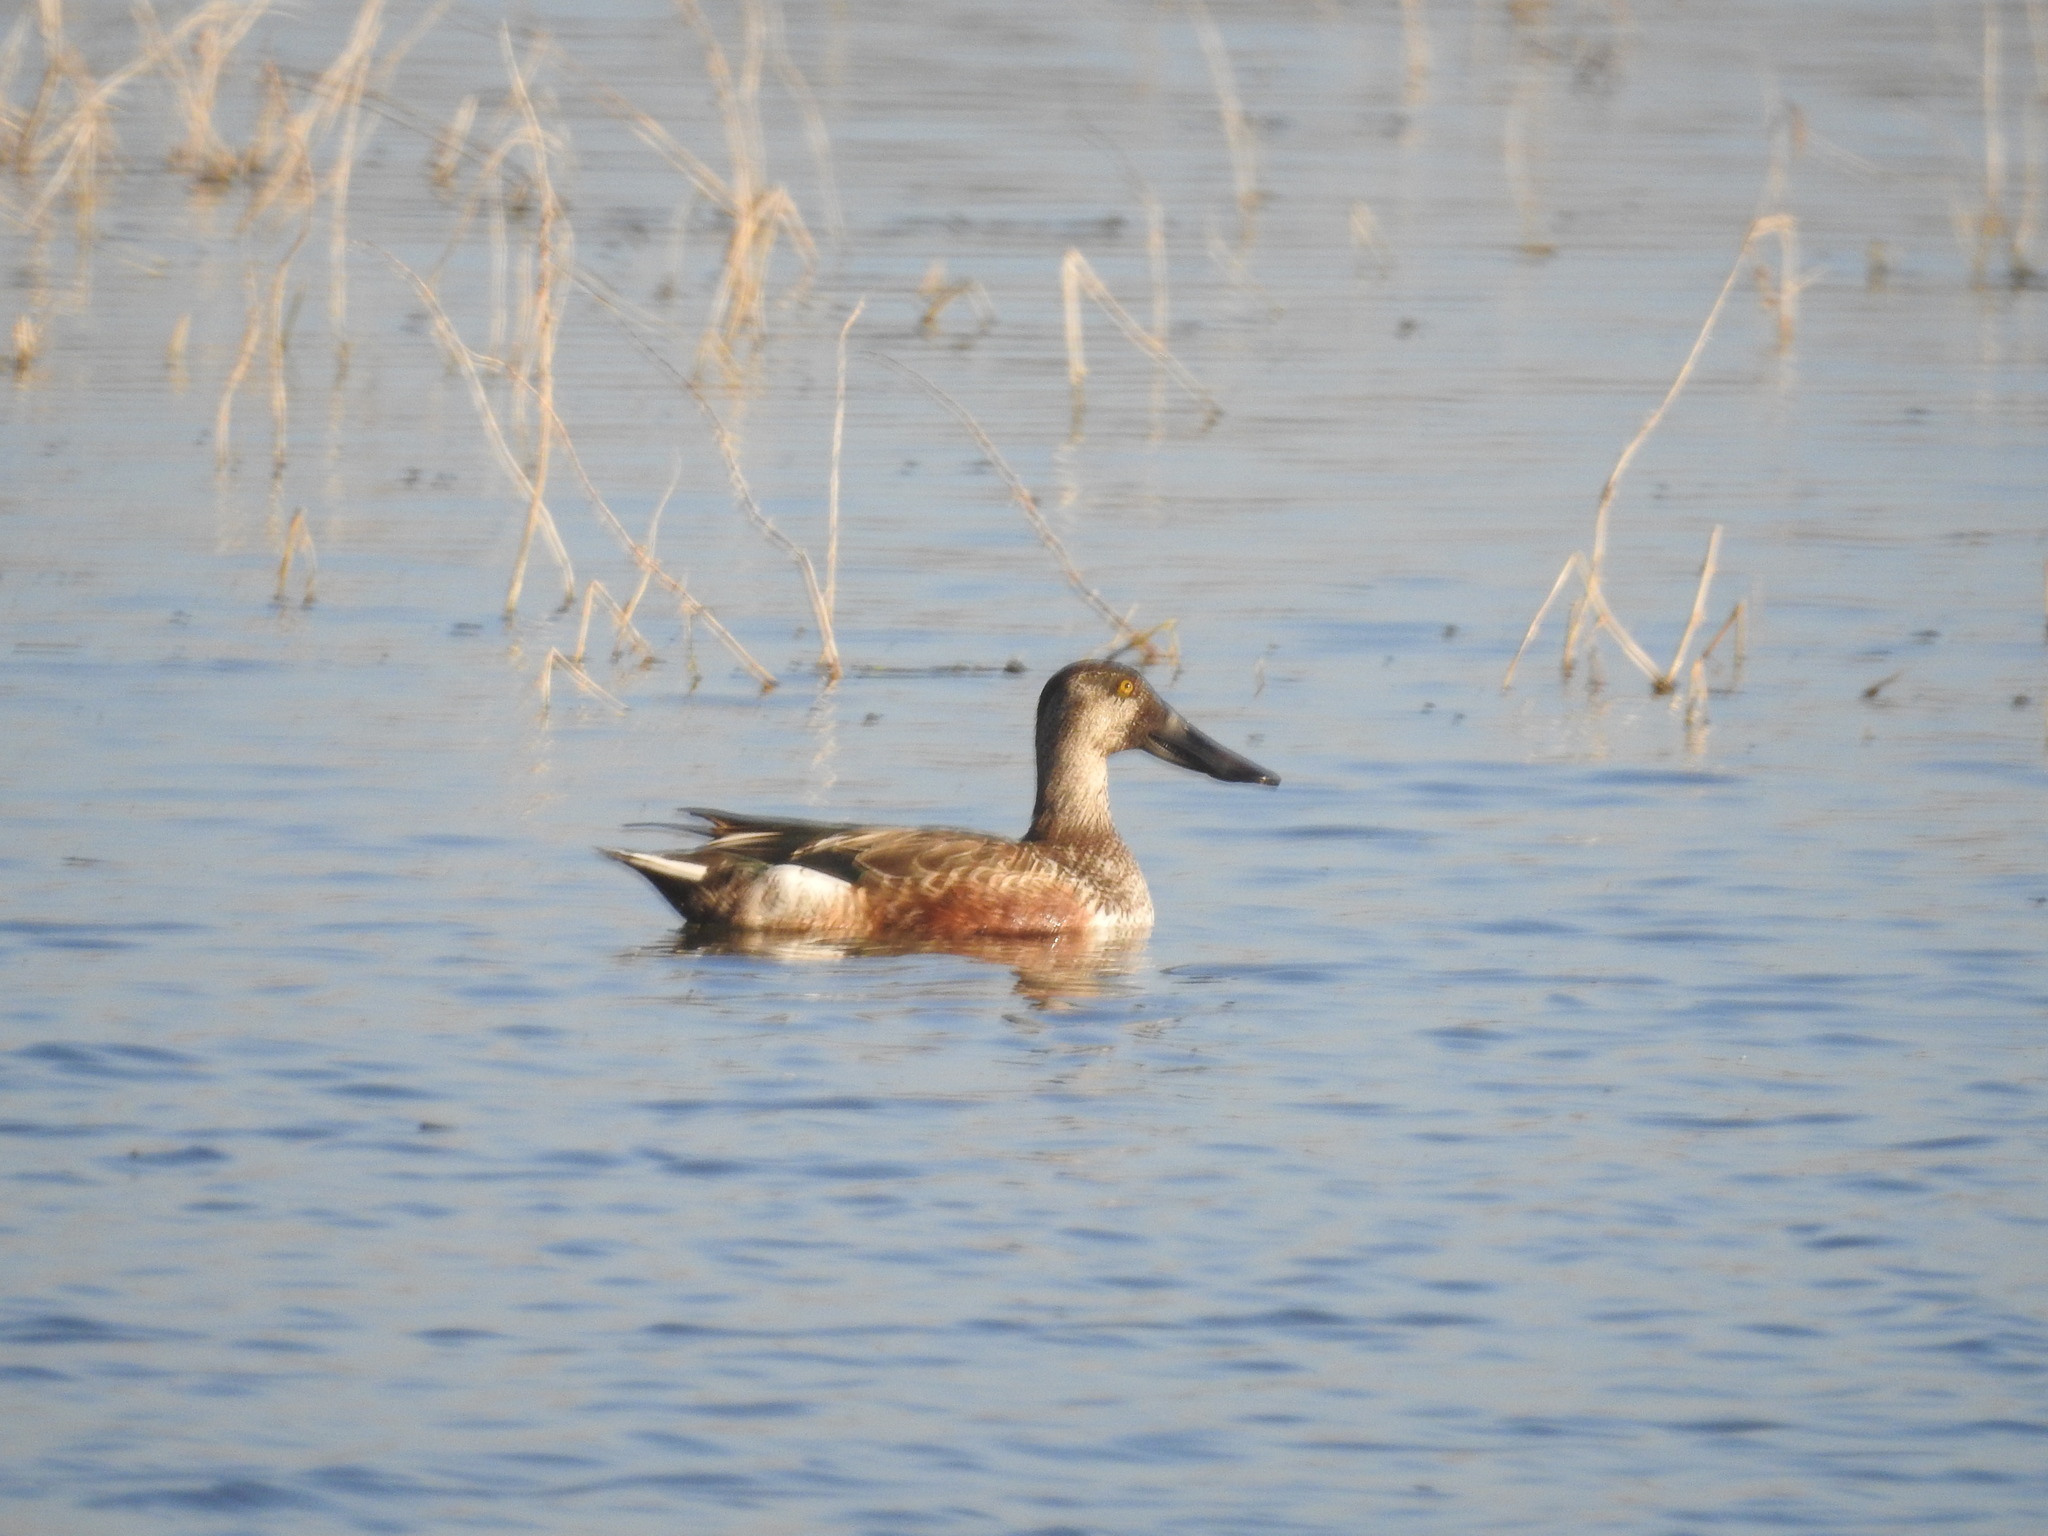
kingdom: Animalia
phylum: Chordata
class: Aves
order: Anseriformes
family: Anatidae
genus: Spatula
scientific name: Spatula clypeata
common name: Northern shoveler
